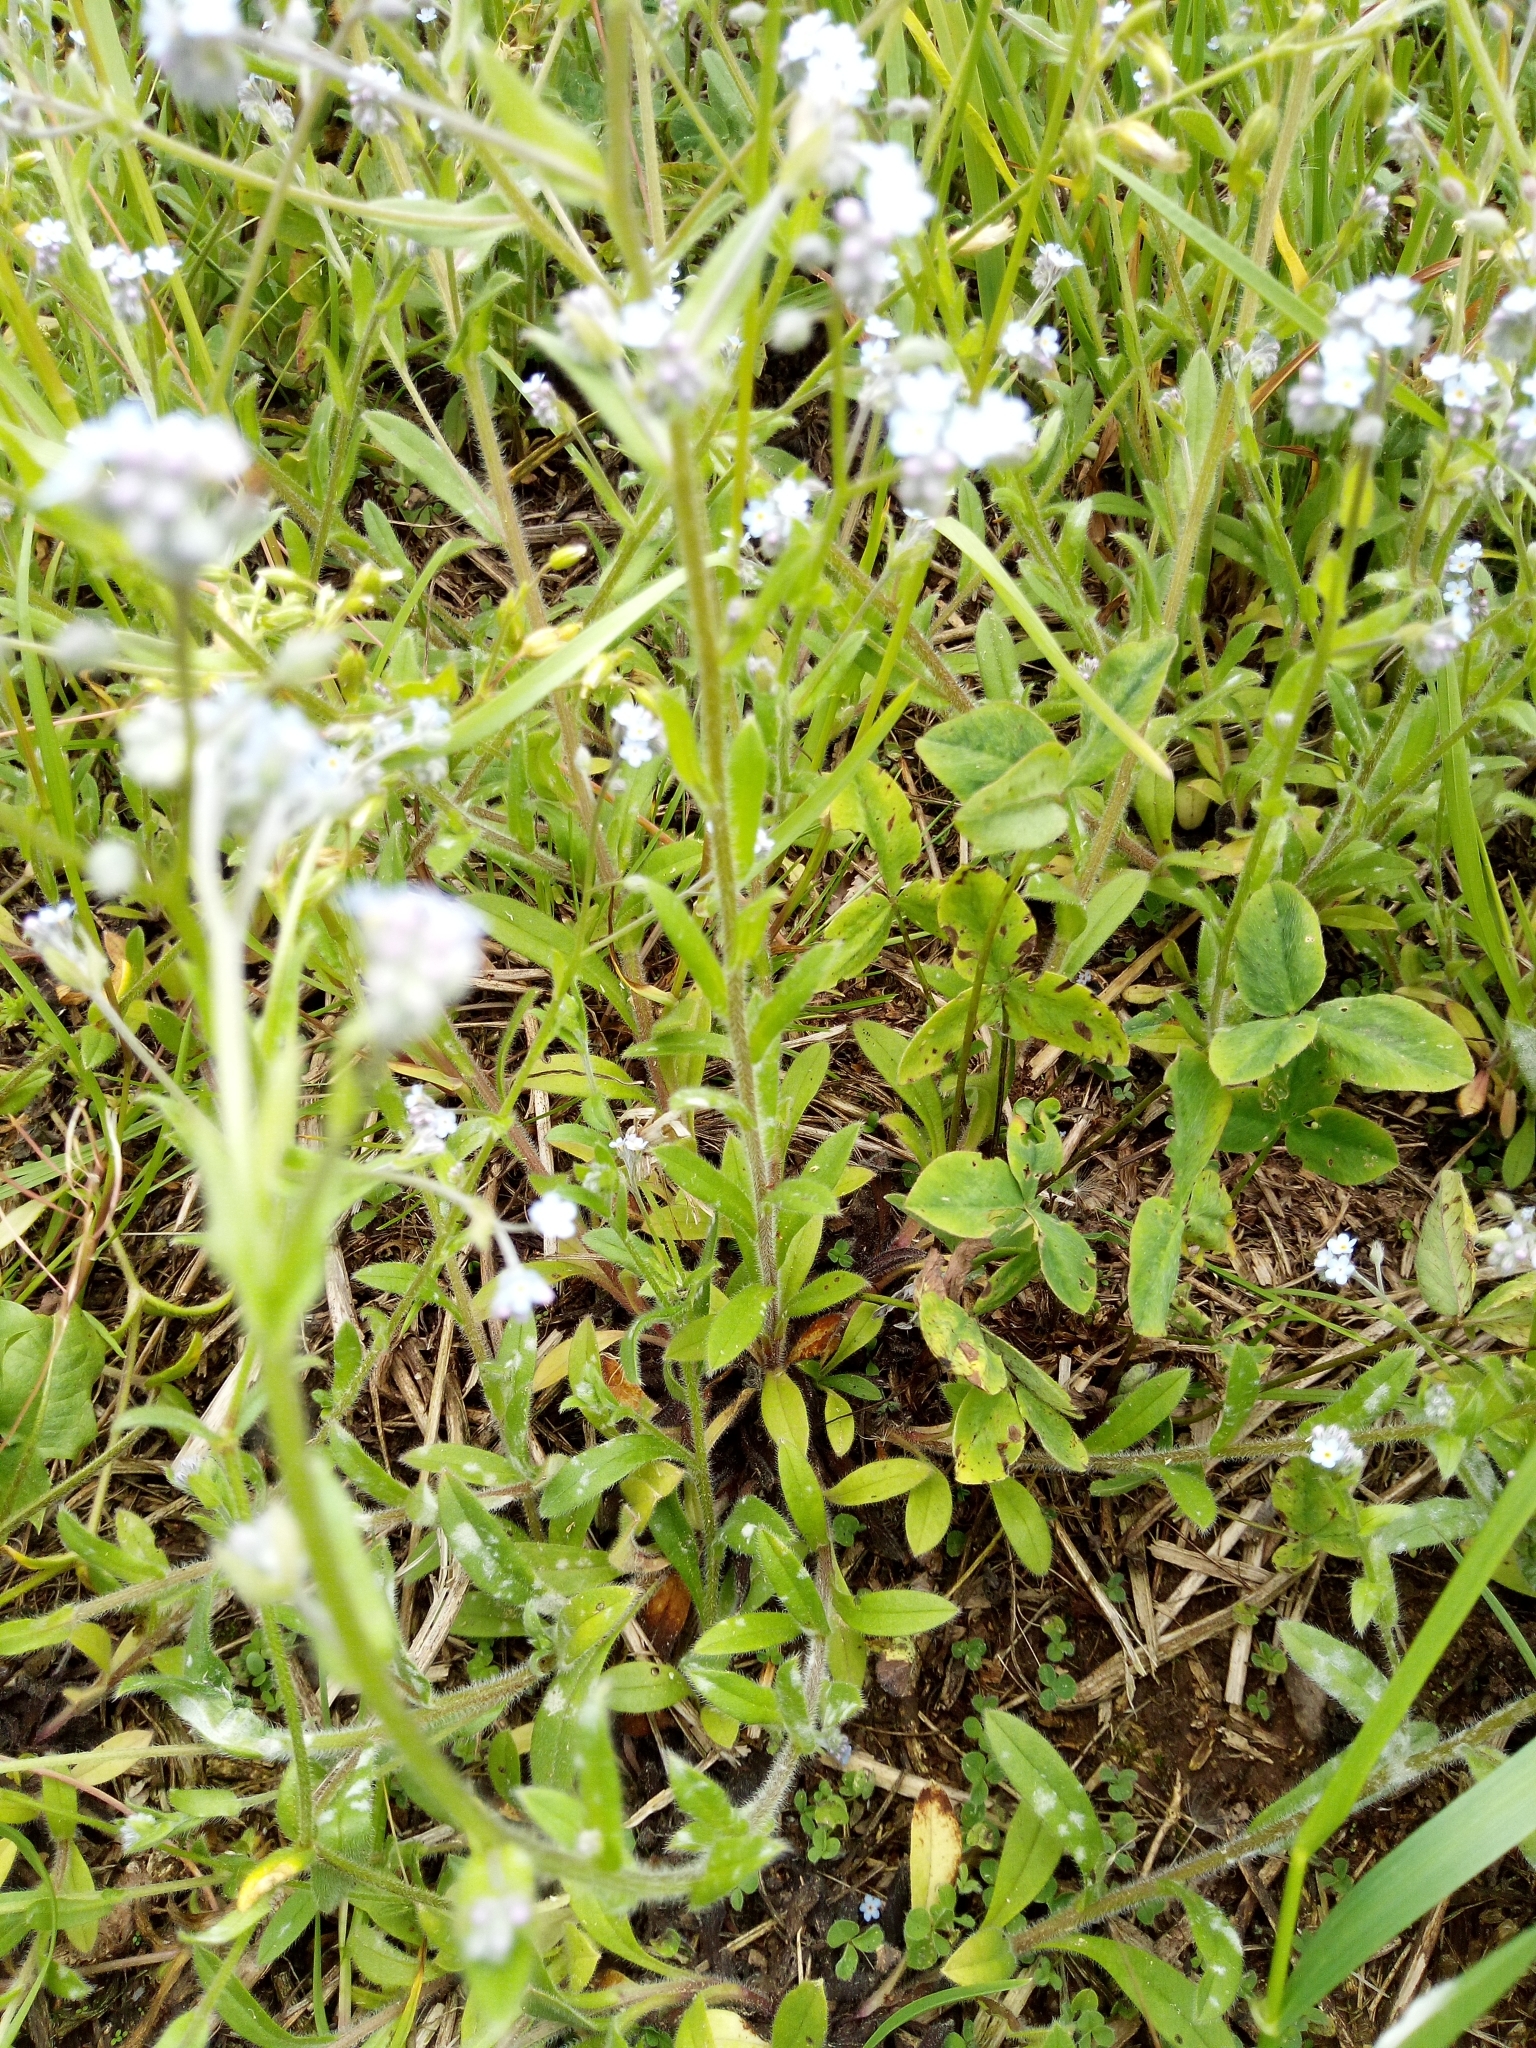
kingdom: Plantae
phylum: Tracheophyta
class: Magnoliopsida
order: Boraginales
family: Boraginaceae
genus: Myosotis
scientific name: Myosotis arvensis
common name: Field forget-me-not
